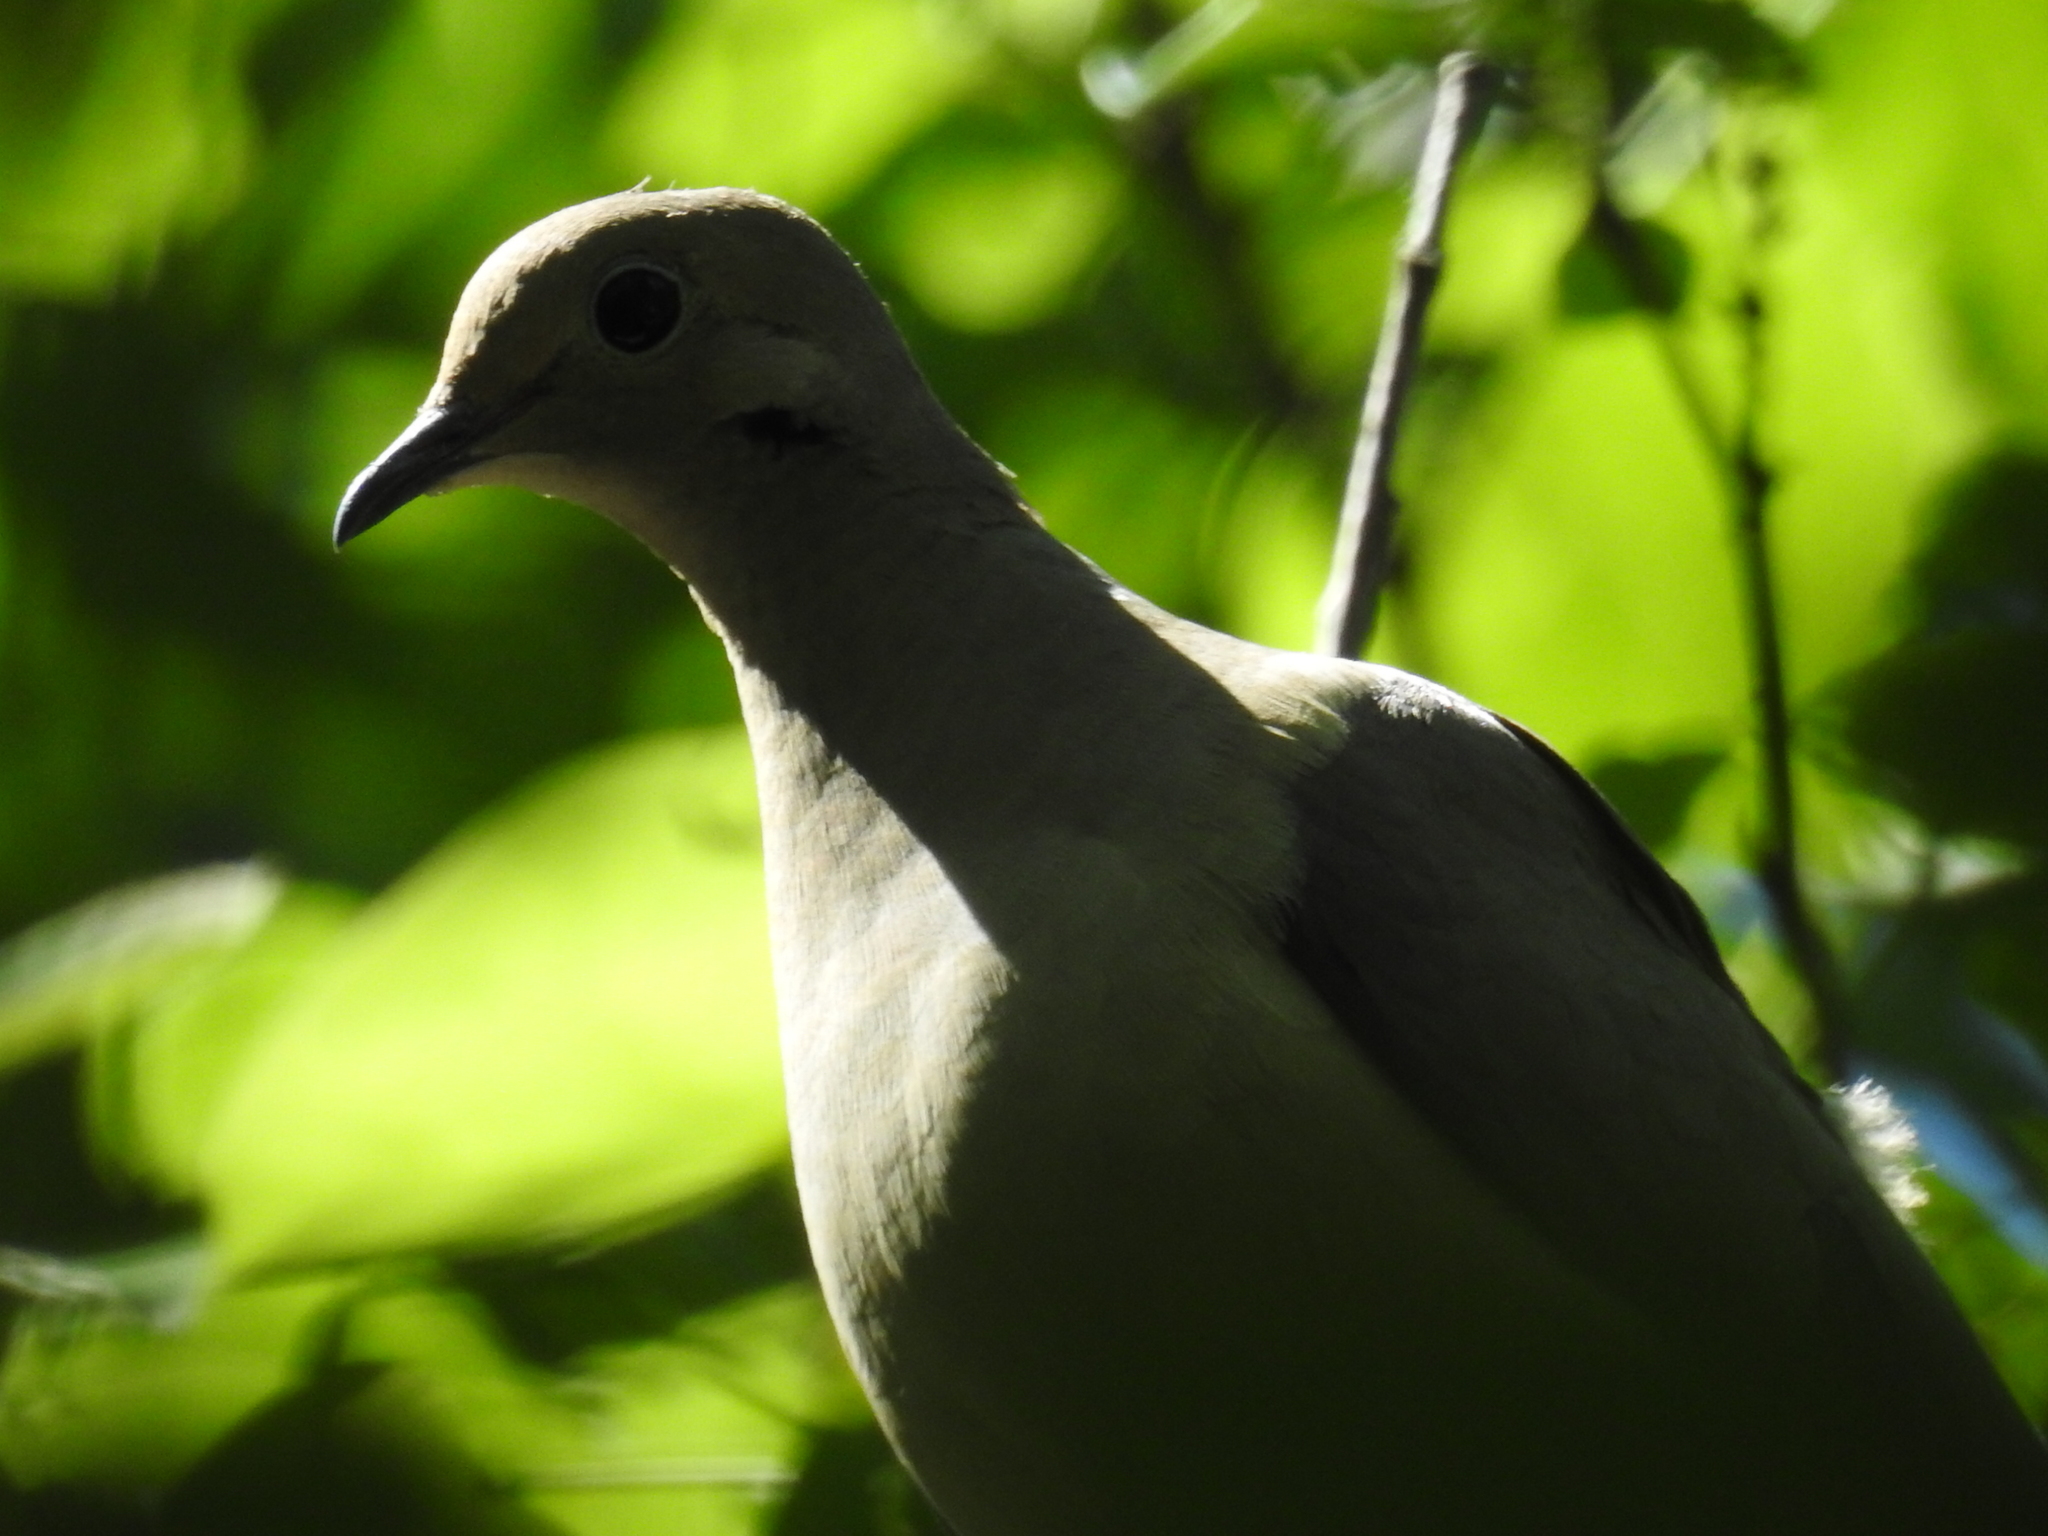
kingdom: Animalia
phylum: Chordata
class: Aves
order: Columbiformes
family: Columbidae
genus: Zenaida
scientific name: Zenaida macroura
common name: Mourning dove
